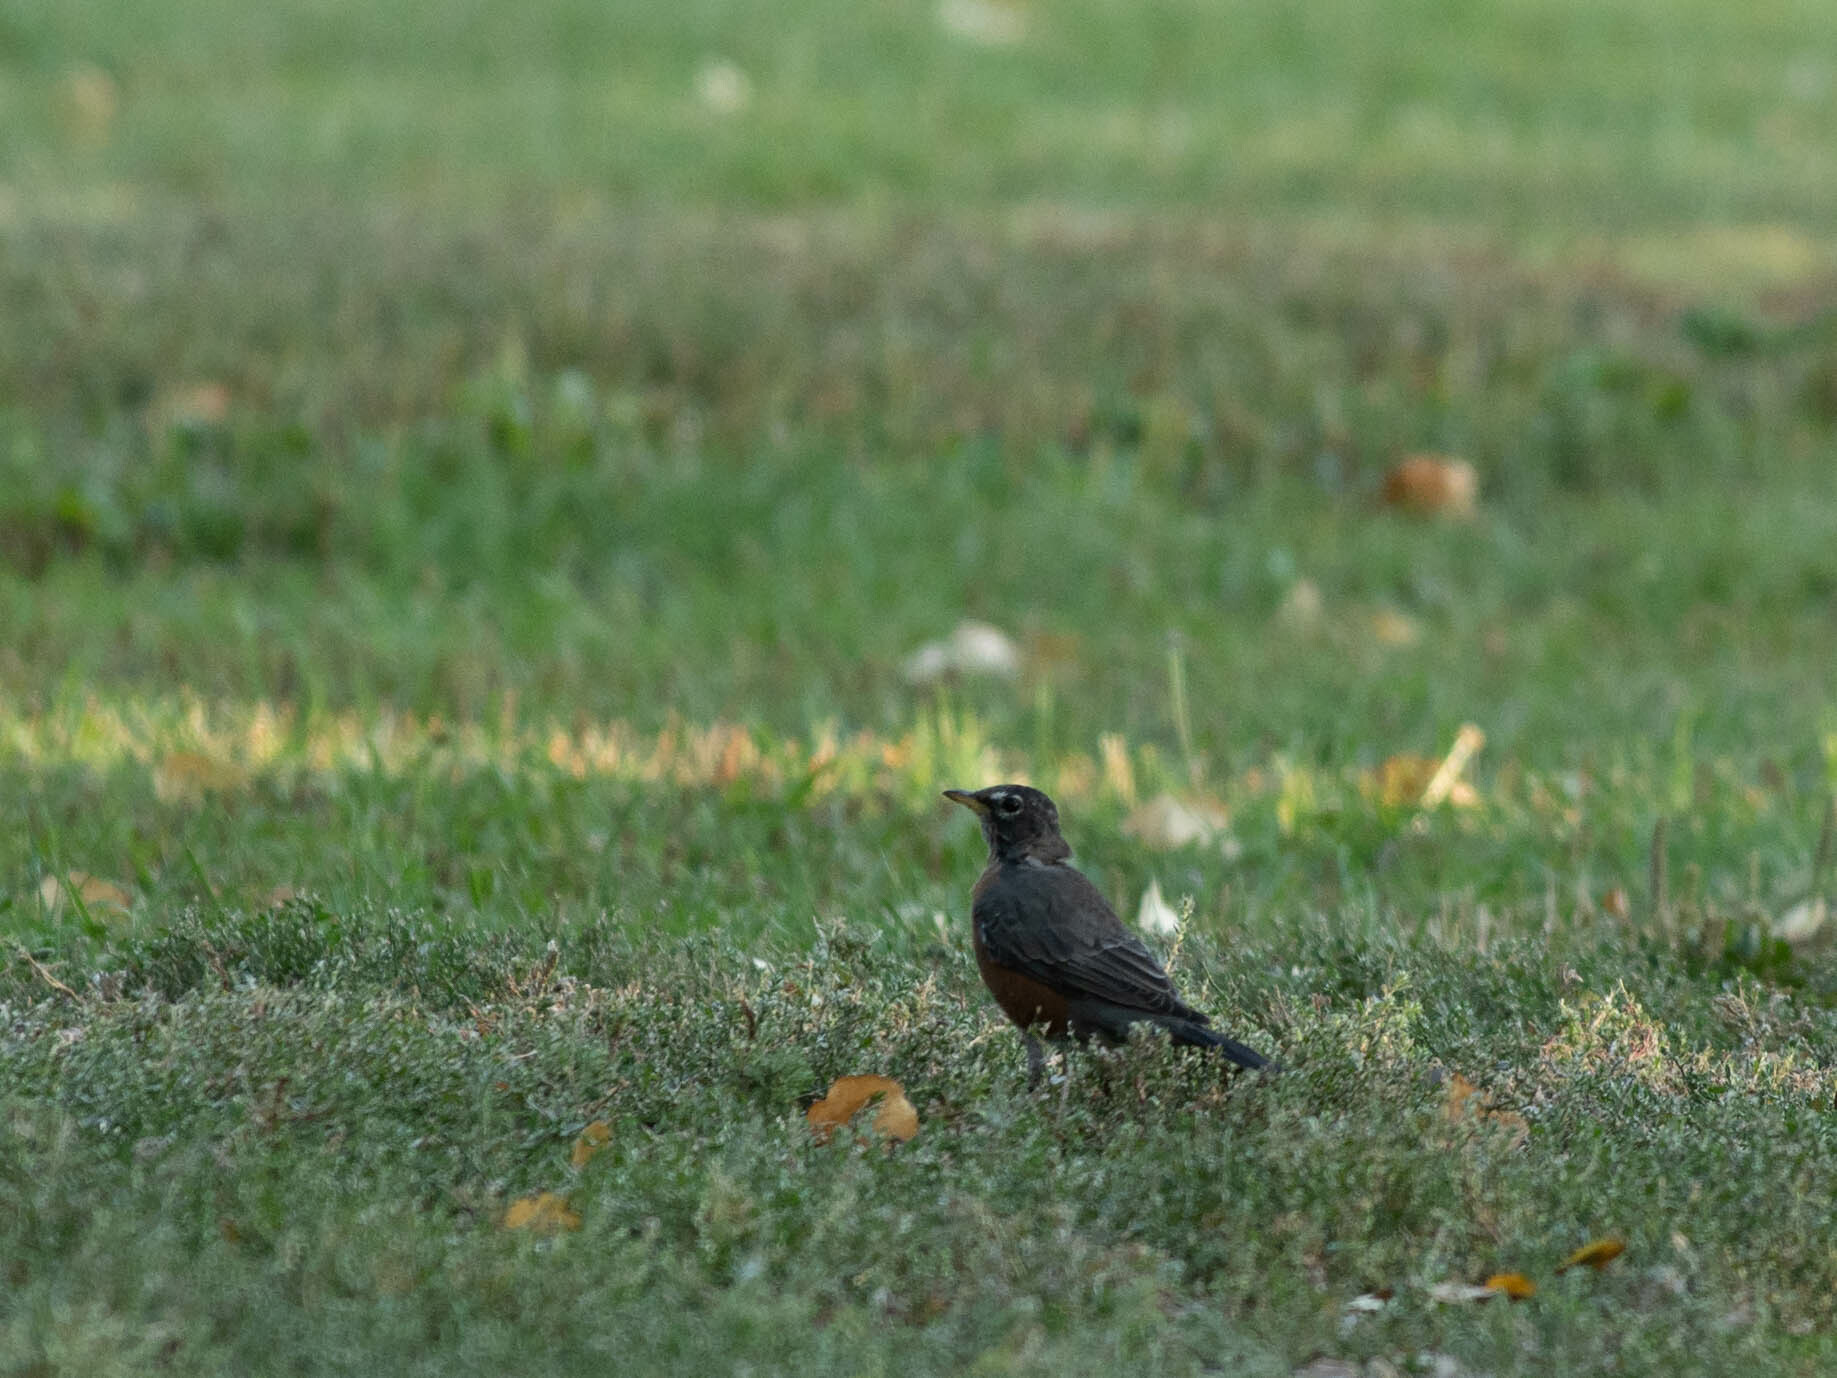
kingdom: Animalia
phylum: Chordata
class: Aves
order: Passeriformes
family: Turdidae
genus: Turdus
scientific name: Turdus migratorius
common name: American robin
